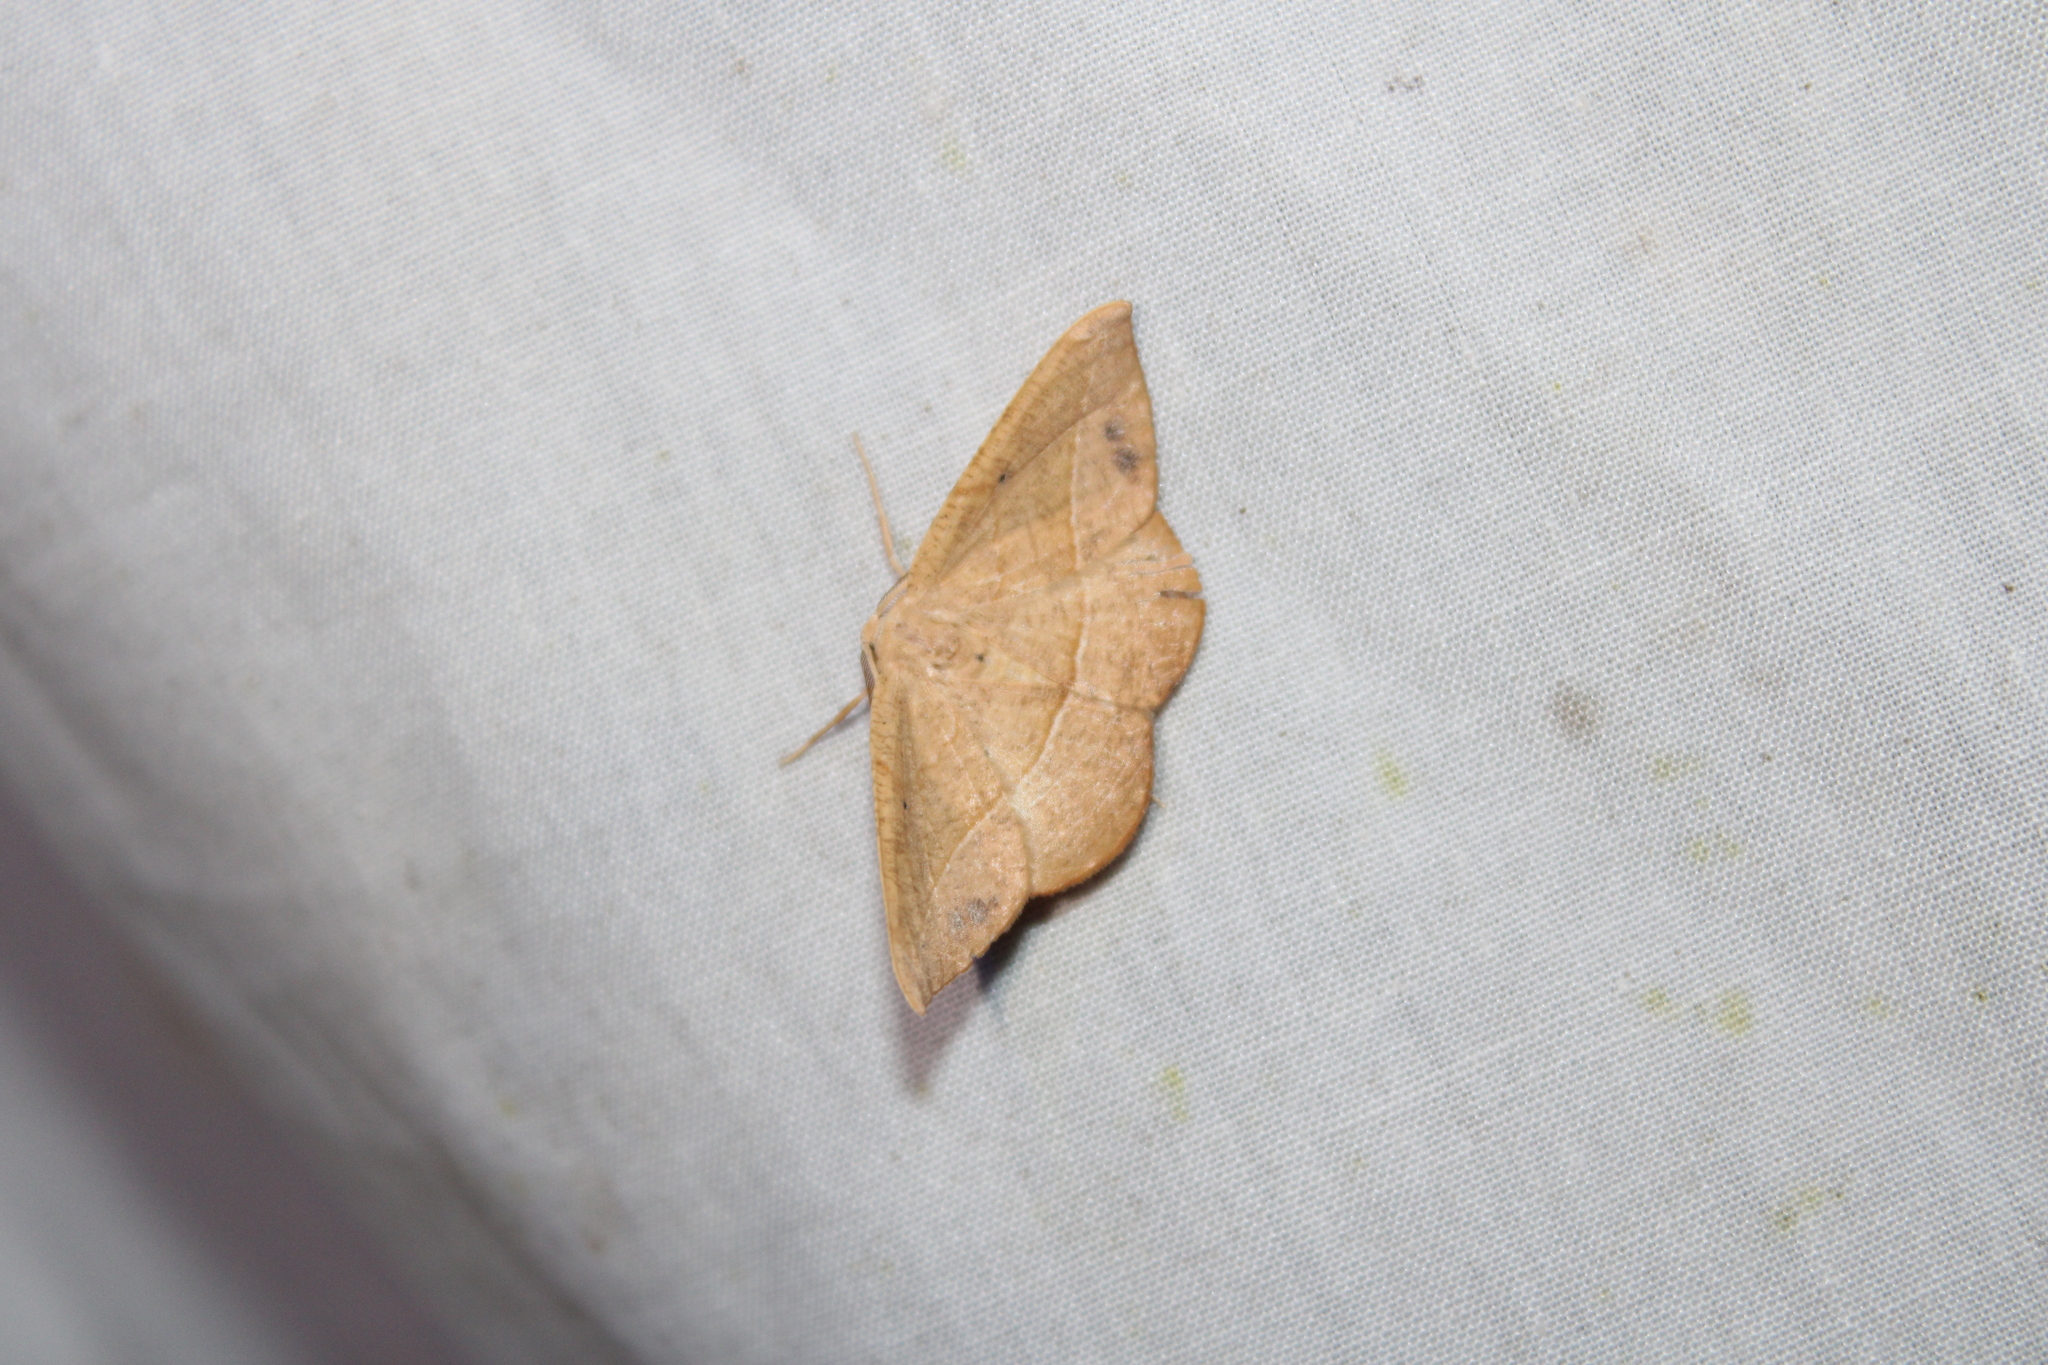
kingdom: Animalia
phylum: Arthropoda
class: Insecta
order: Lepidoptera
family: Geometridae
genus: Patalene
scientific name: Patalene olyzonaria
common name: Juniper geometer moth
